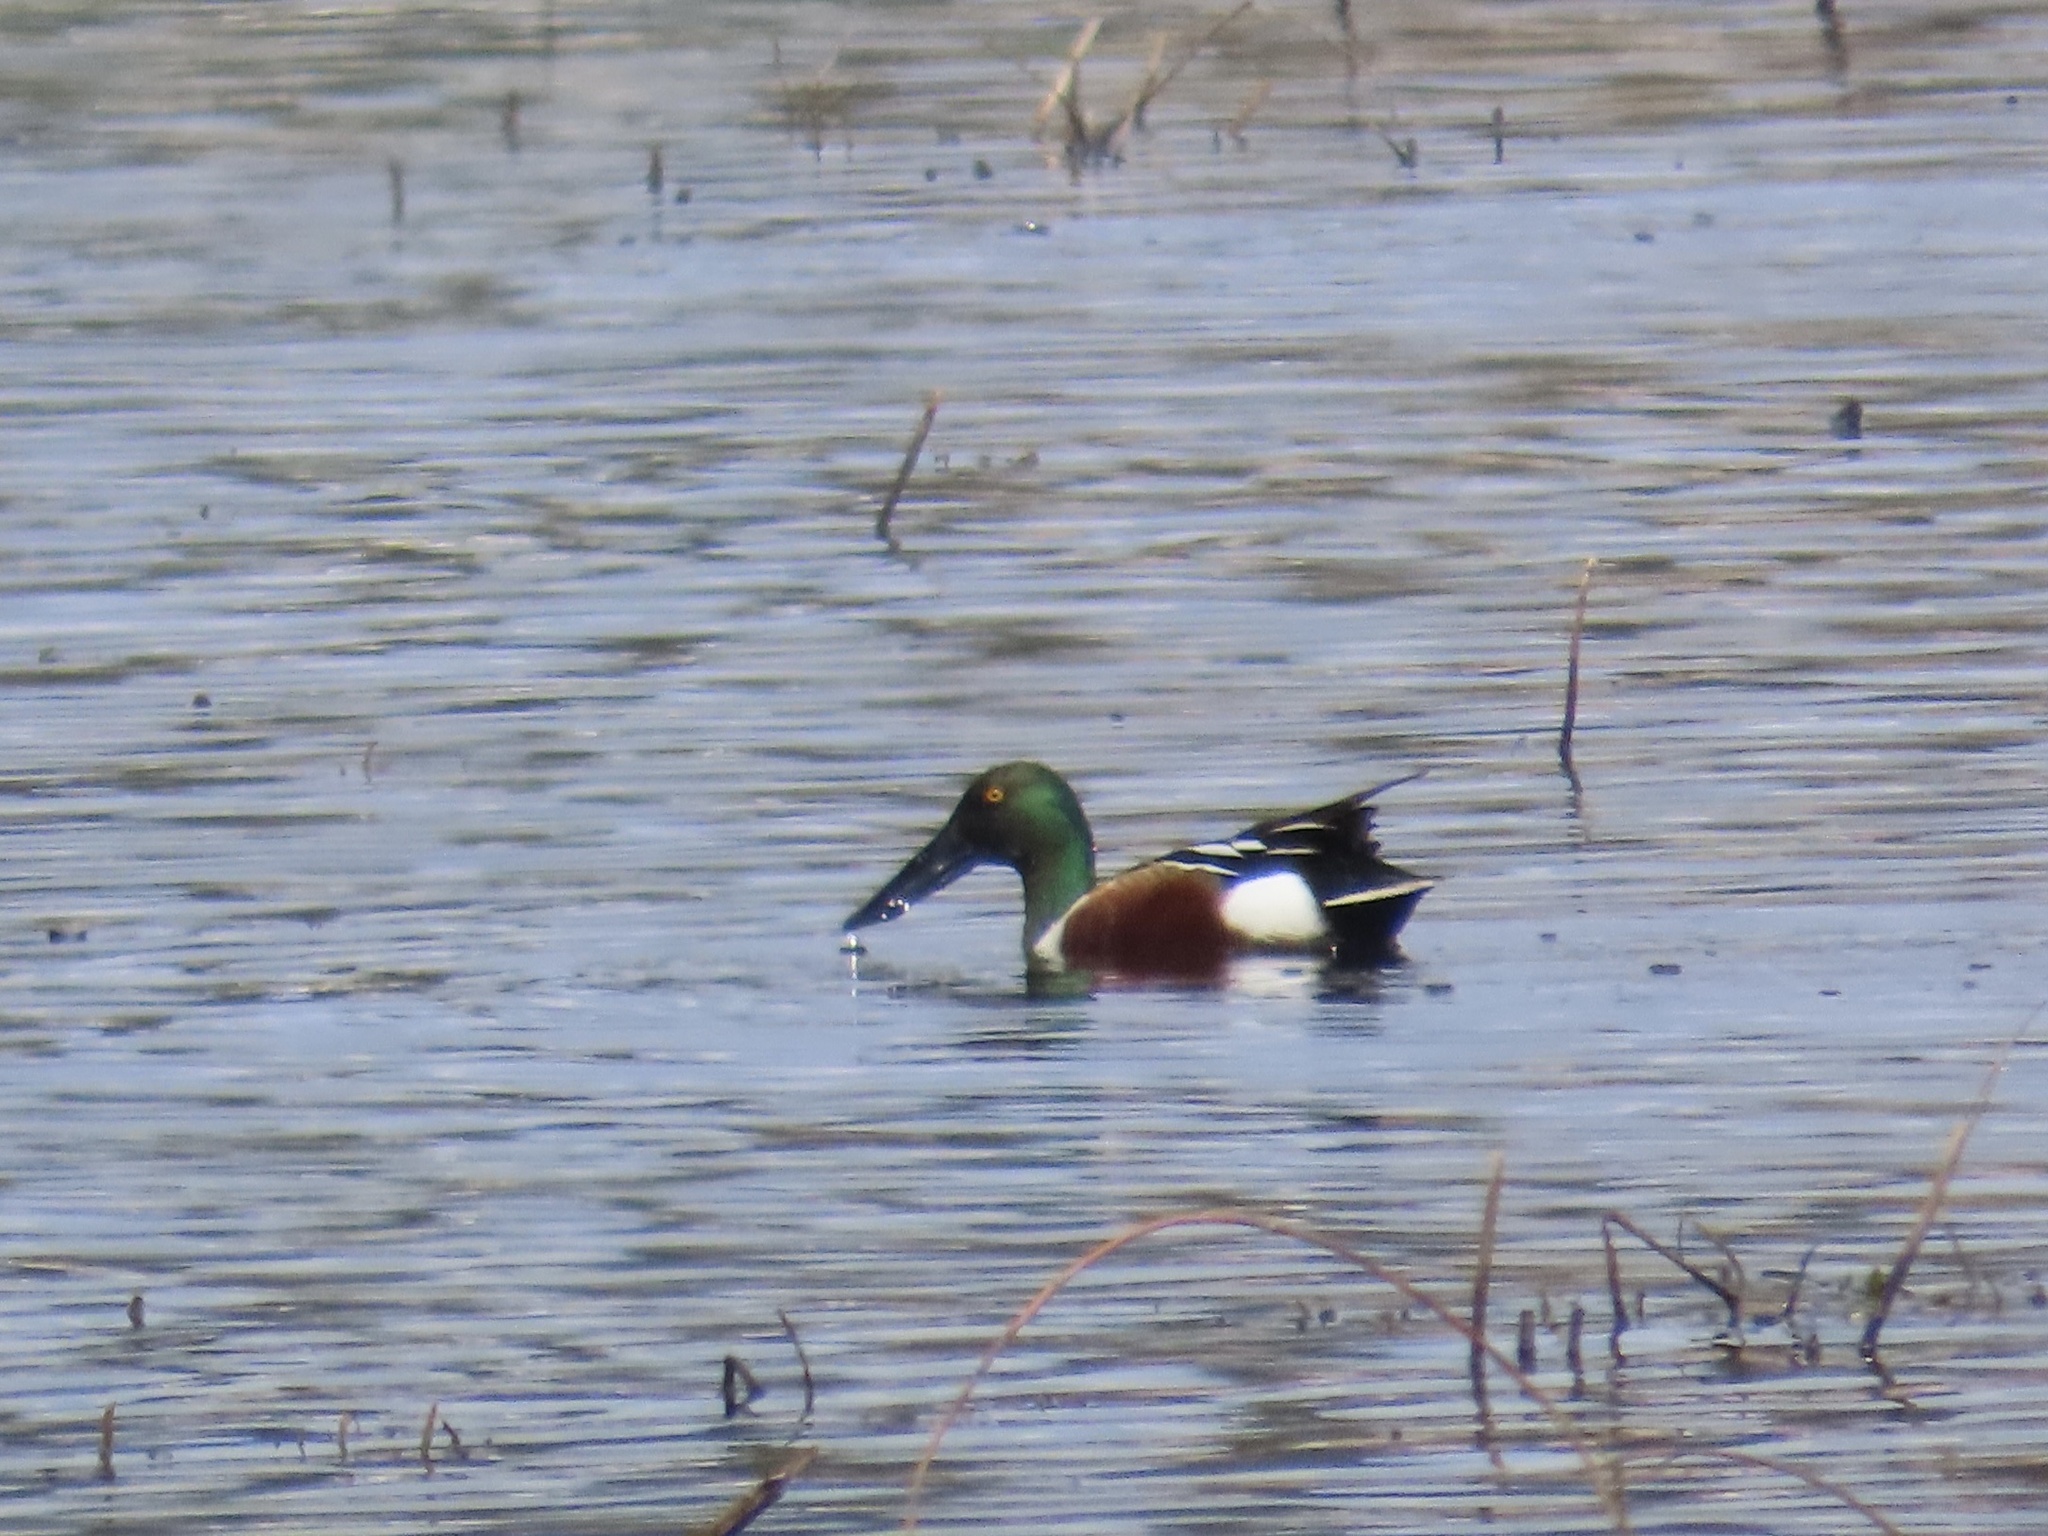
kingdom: Animalia
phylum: Chordata
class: Aves
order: Anseriformes
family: Anatidae
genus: Spatula
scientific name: Spatula clypeata
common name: Northern shoveler
